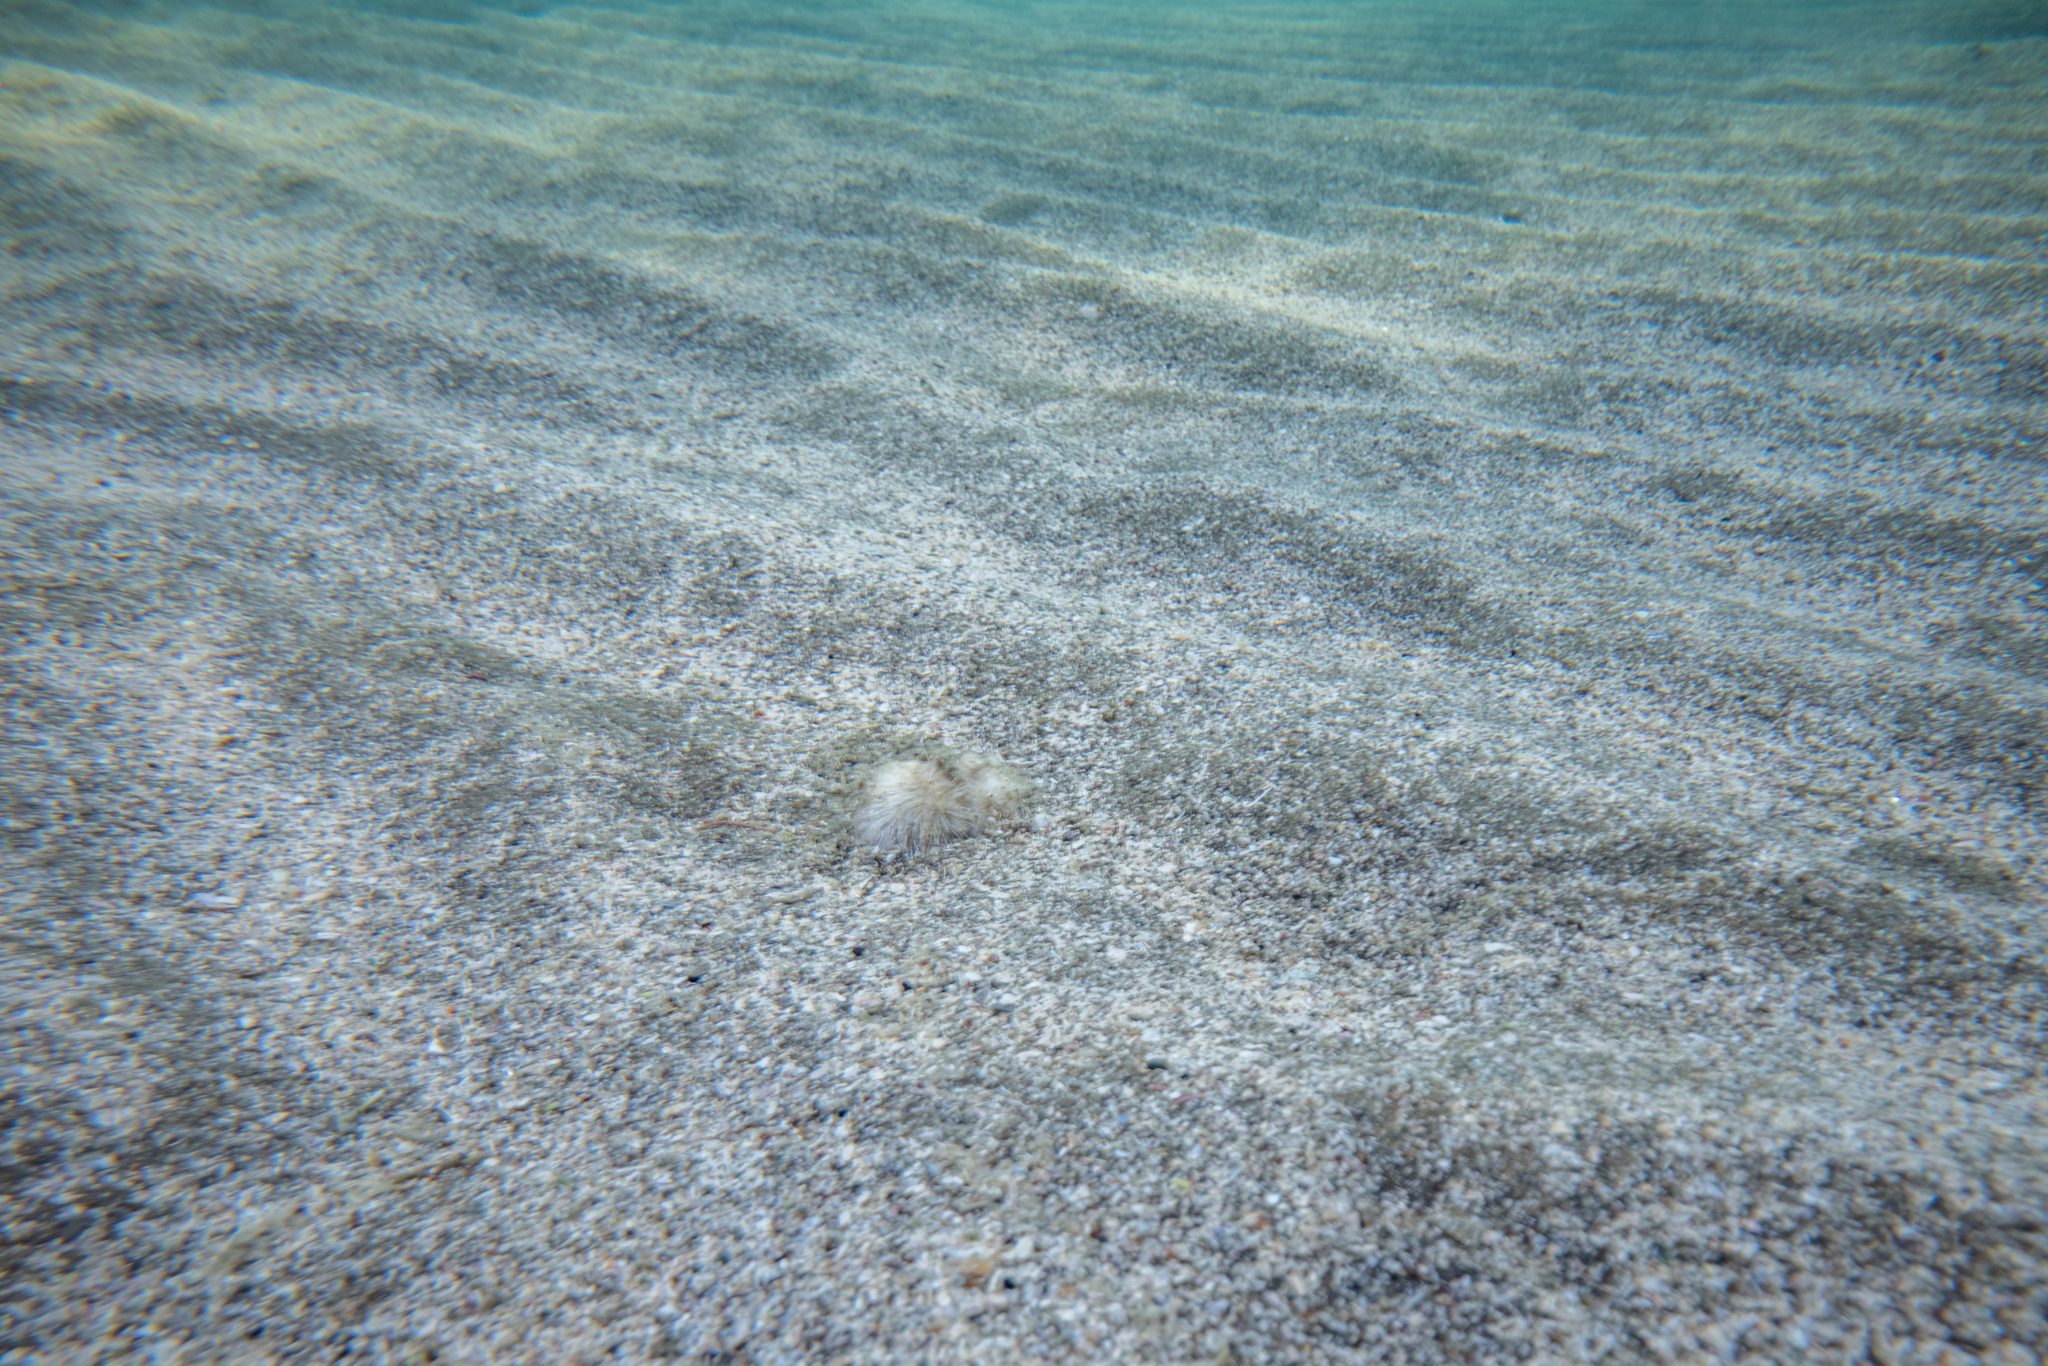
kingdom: Animalia
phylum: Echinodermata
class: Echinoidea
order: Spatangoida
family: Loveniidae
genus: Echinocardium
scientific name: Echinocardium cordatum
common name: Heart-urchin
